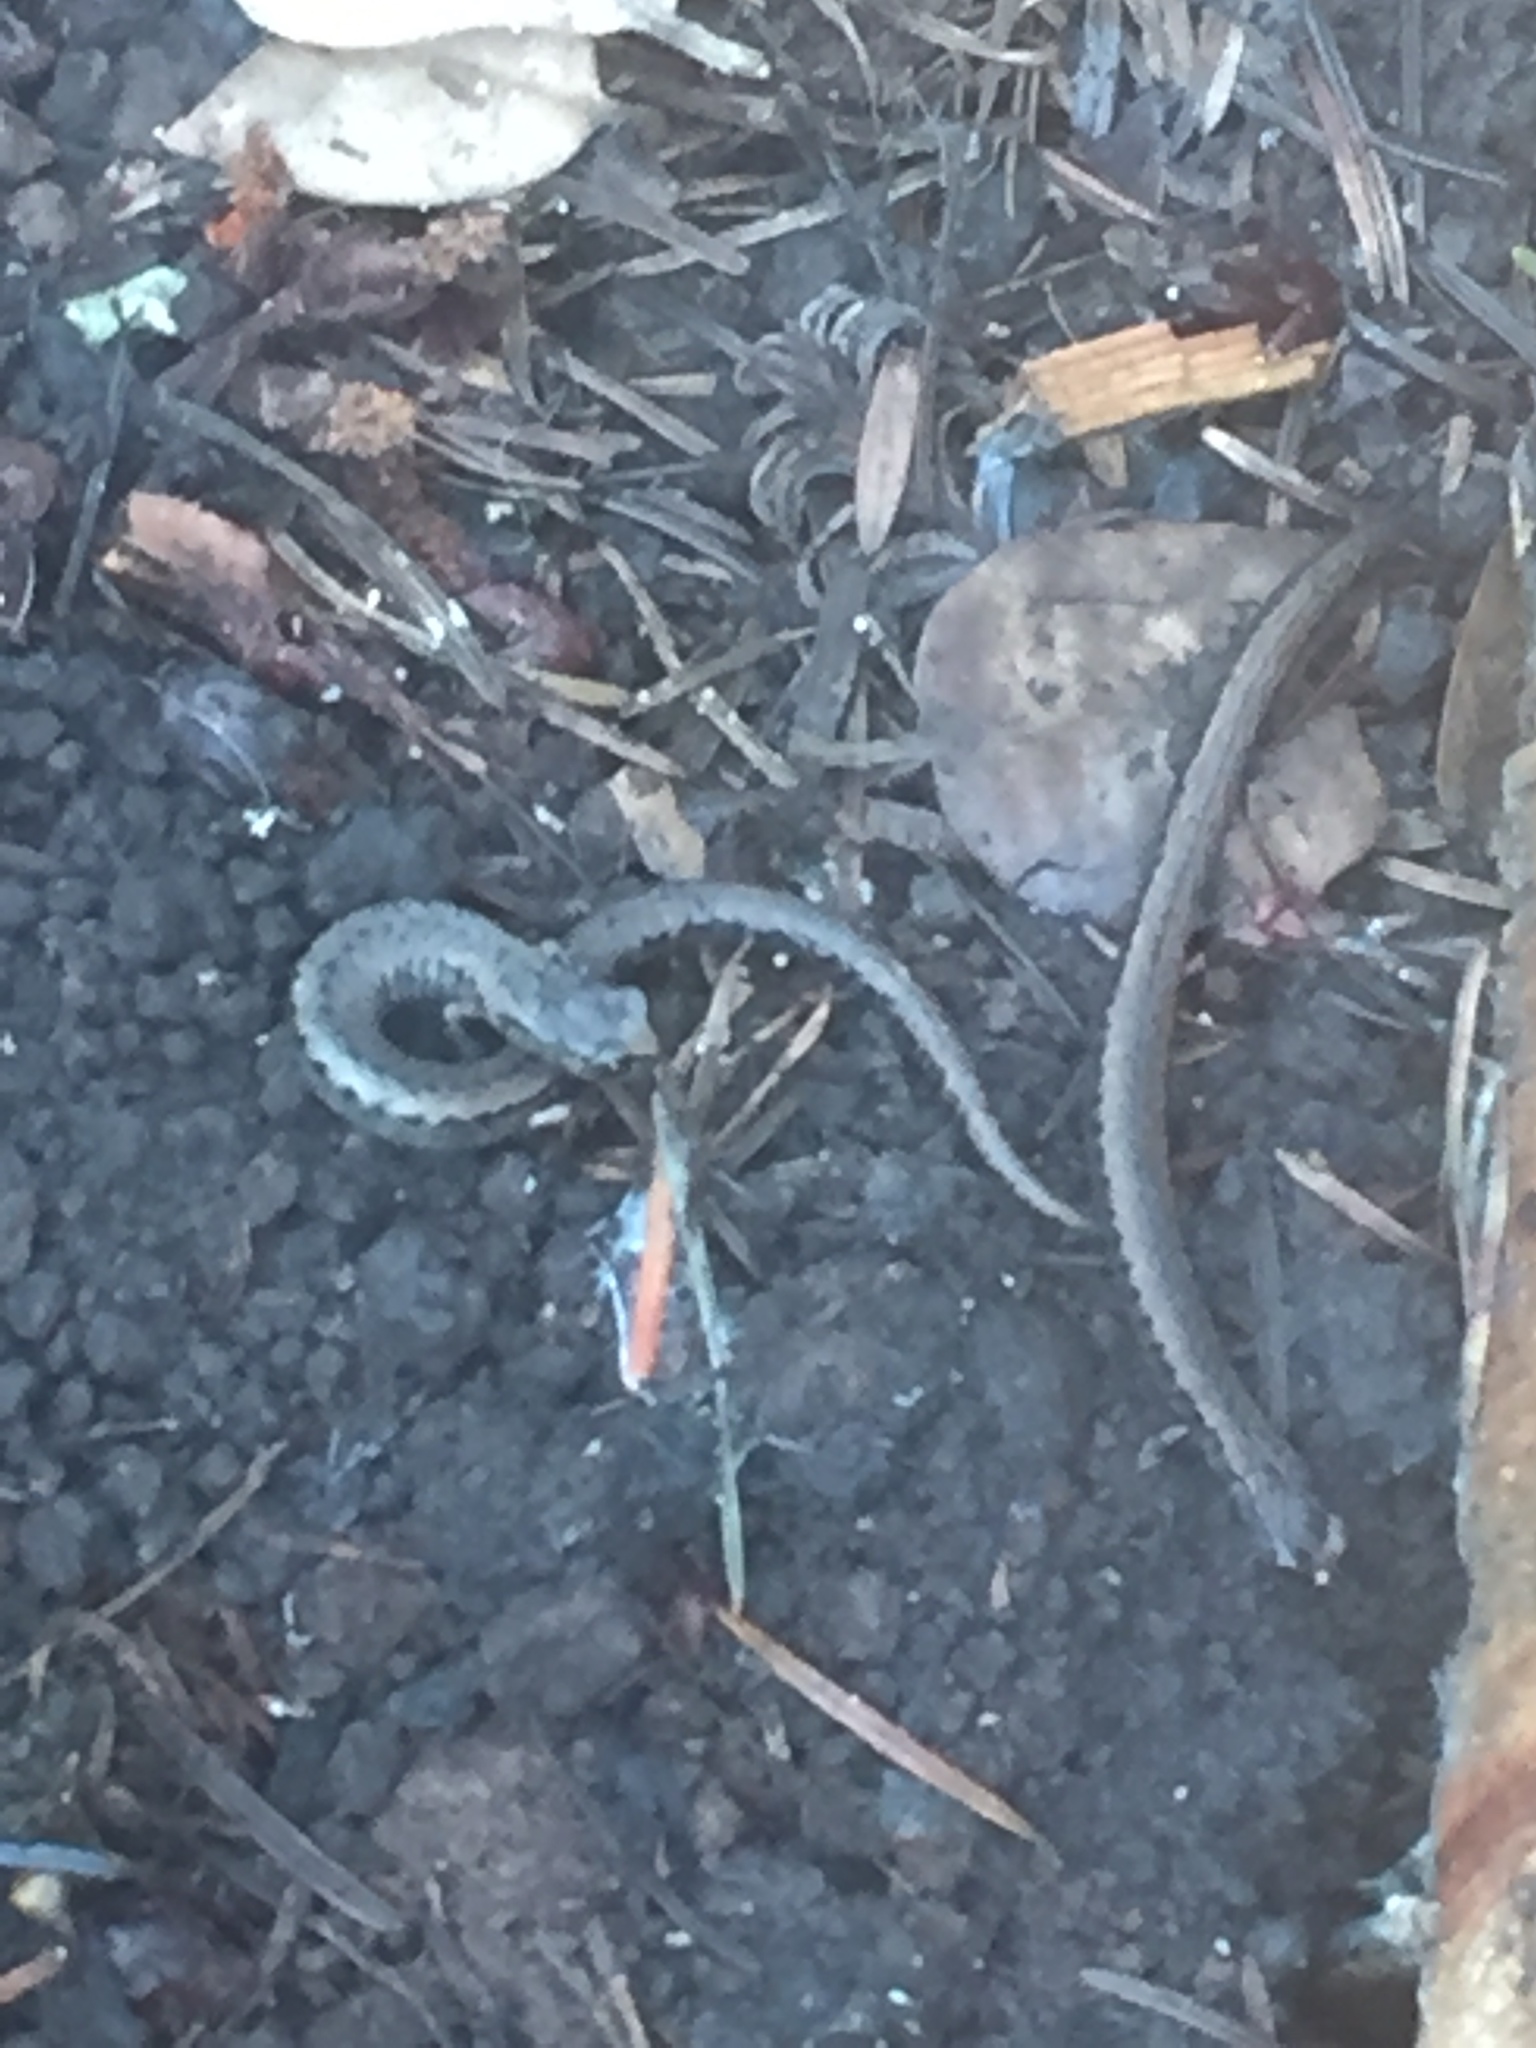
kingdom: Animalia
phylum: Chordata
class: Amphibia
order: Caudata
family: Plethodontidae
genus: Batrachoseps
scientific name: Batrachoseps attenuatus
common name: California slender salamander
